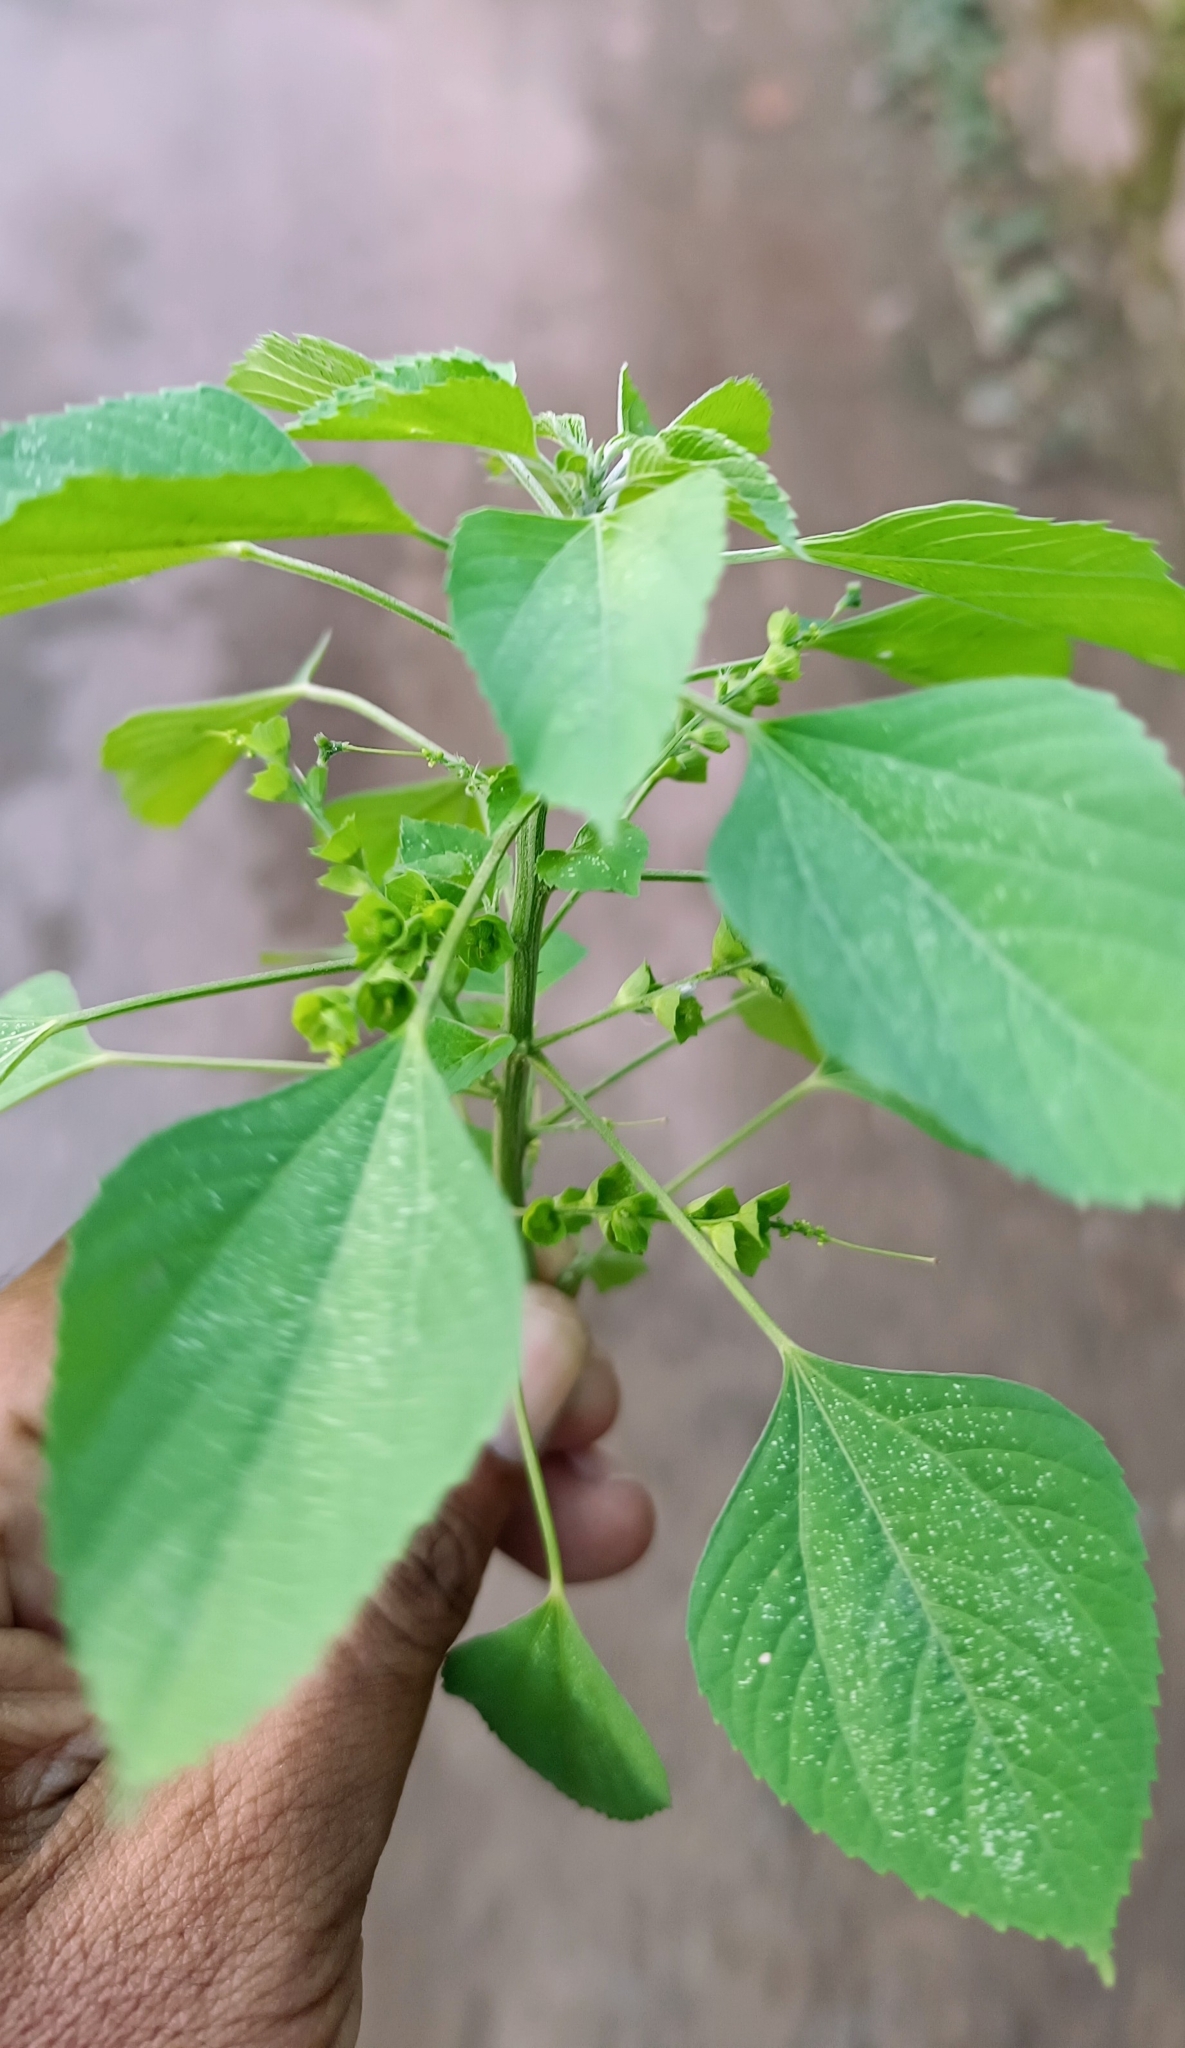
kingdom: Plantae
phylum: Tracheophyta
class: Magnoliopsida
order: Malpighiales
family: Euphorbiaceae
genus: Acalypha
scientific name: Acalypha indica
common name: Indian acalypha
